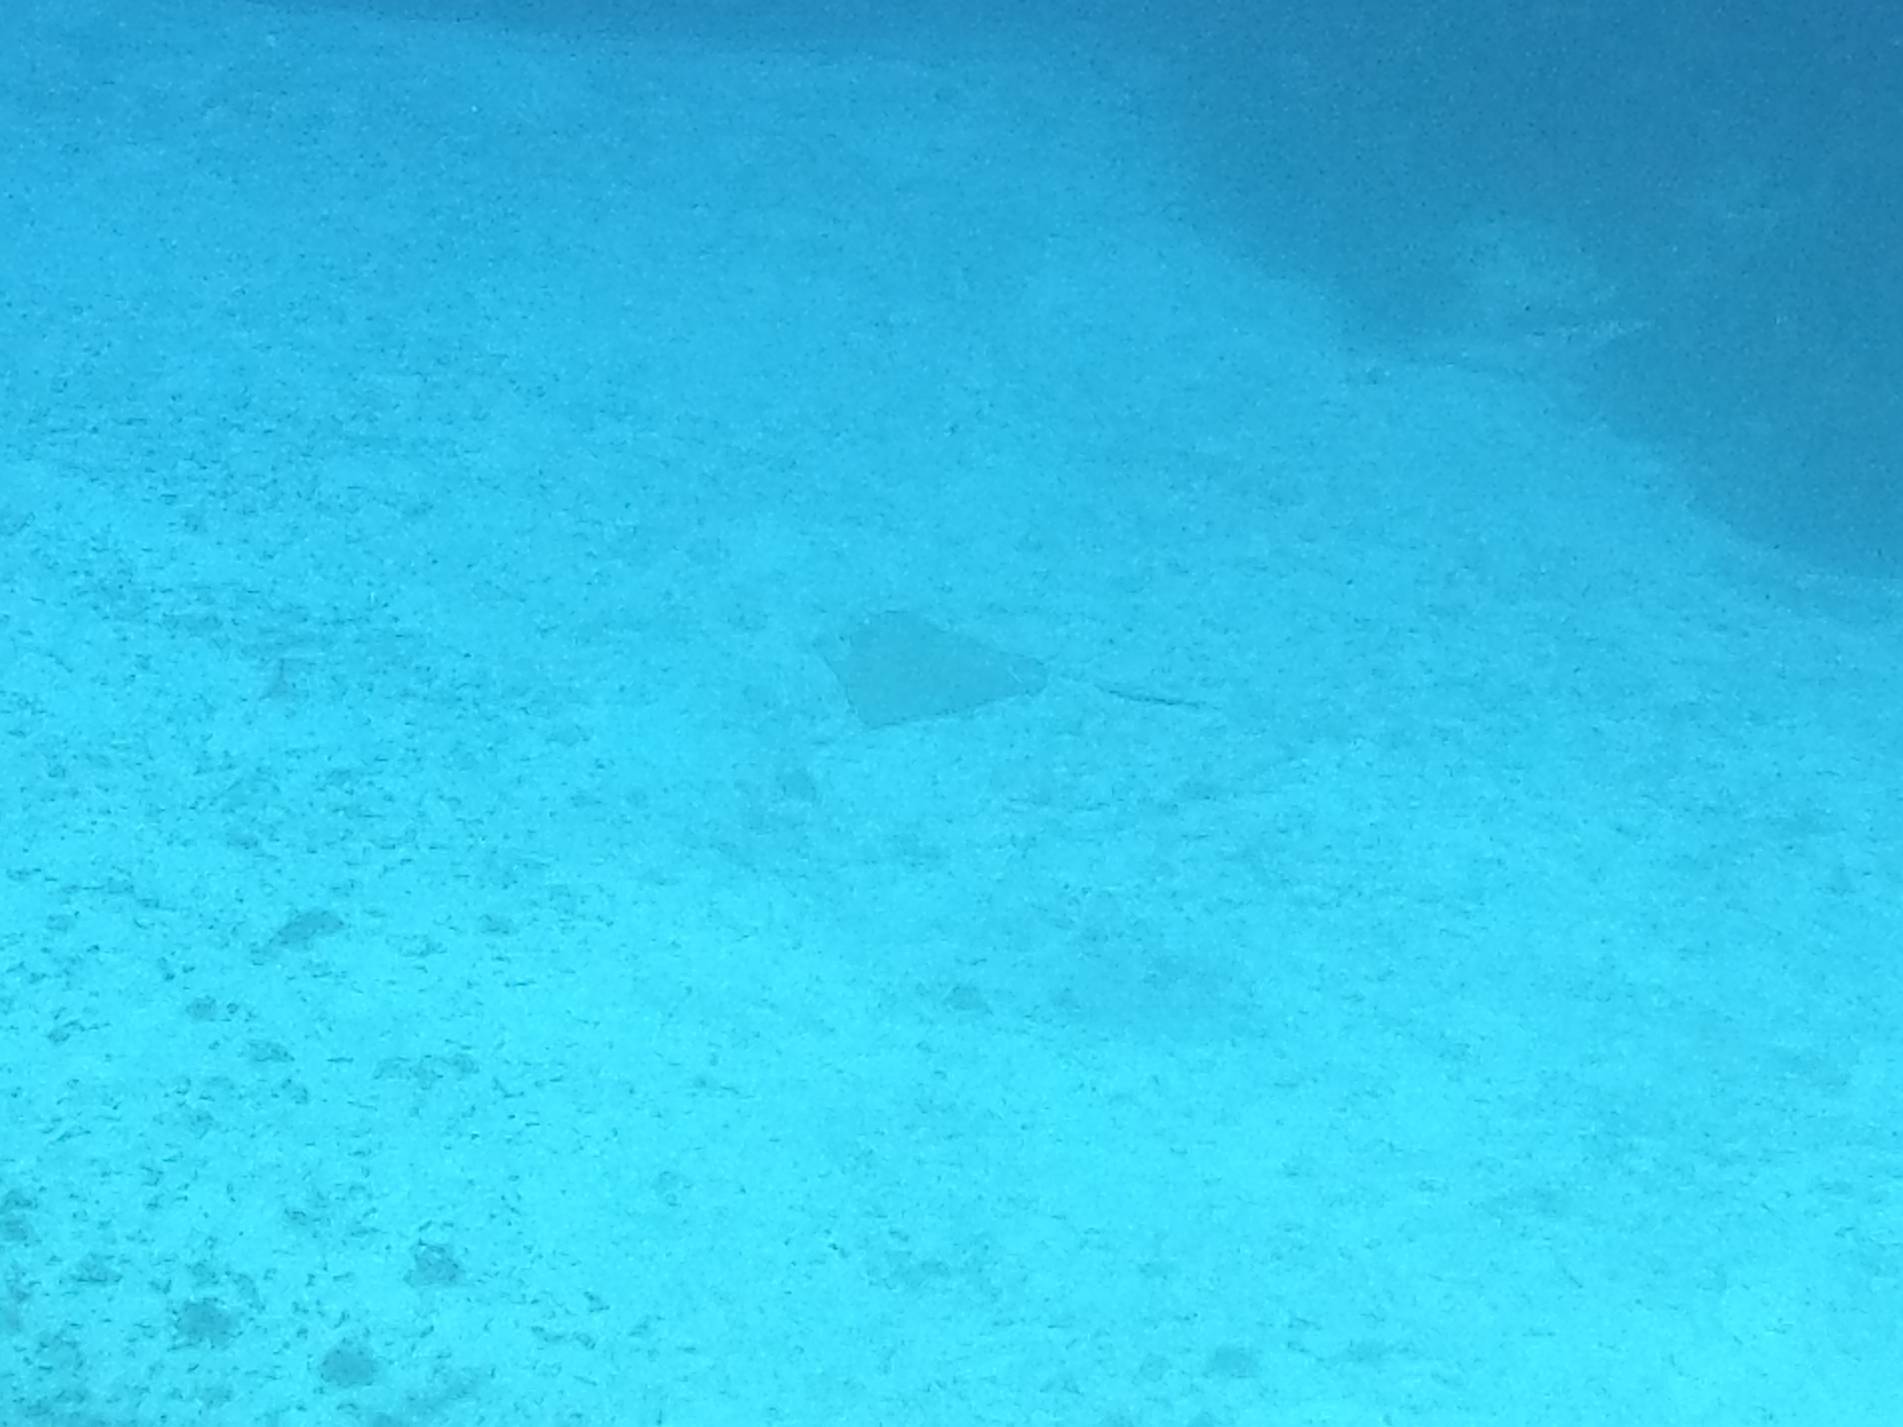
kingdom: Animalia
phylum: Chordata
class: Elasmobranchii
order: Myliobatiformes
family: Dasyatidae
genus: Hypanus
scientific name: Hypanus americanus
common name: Southern stingray
